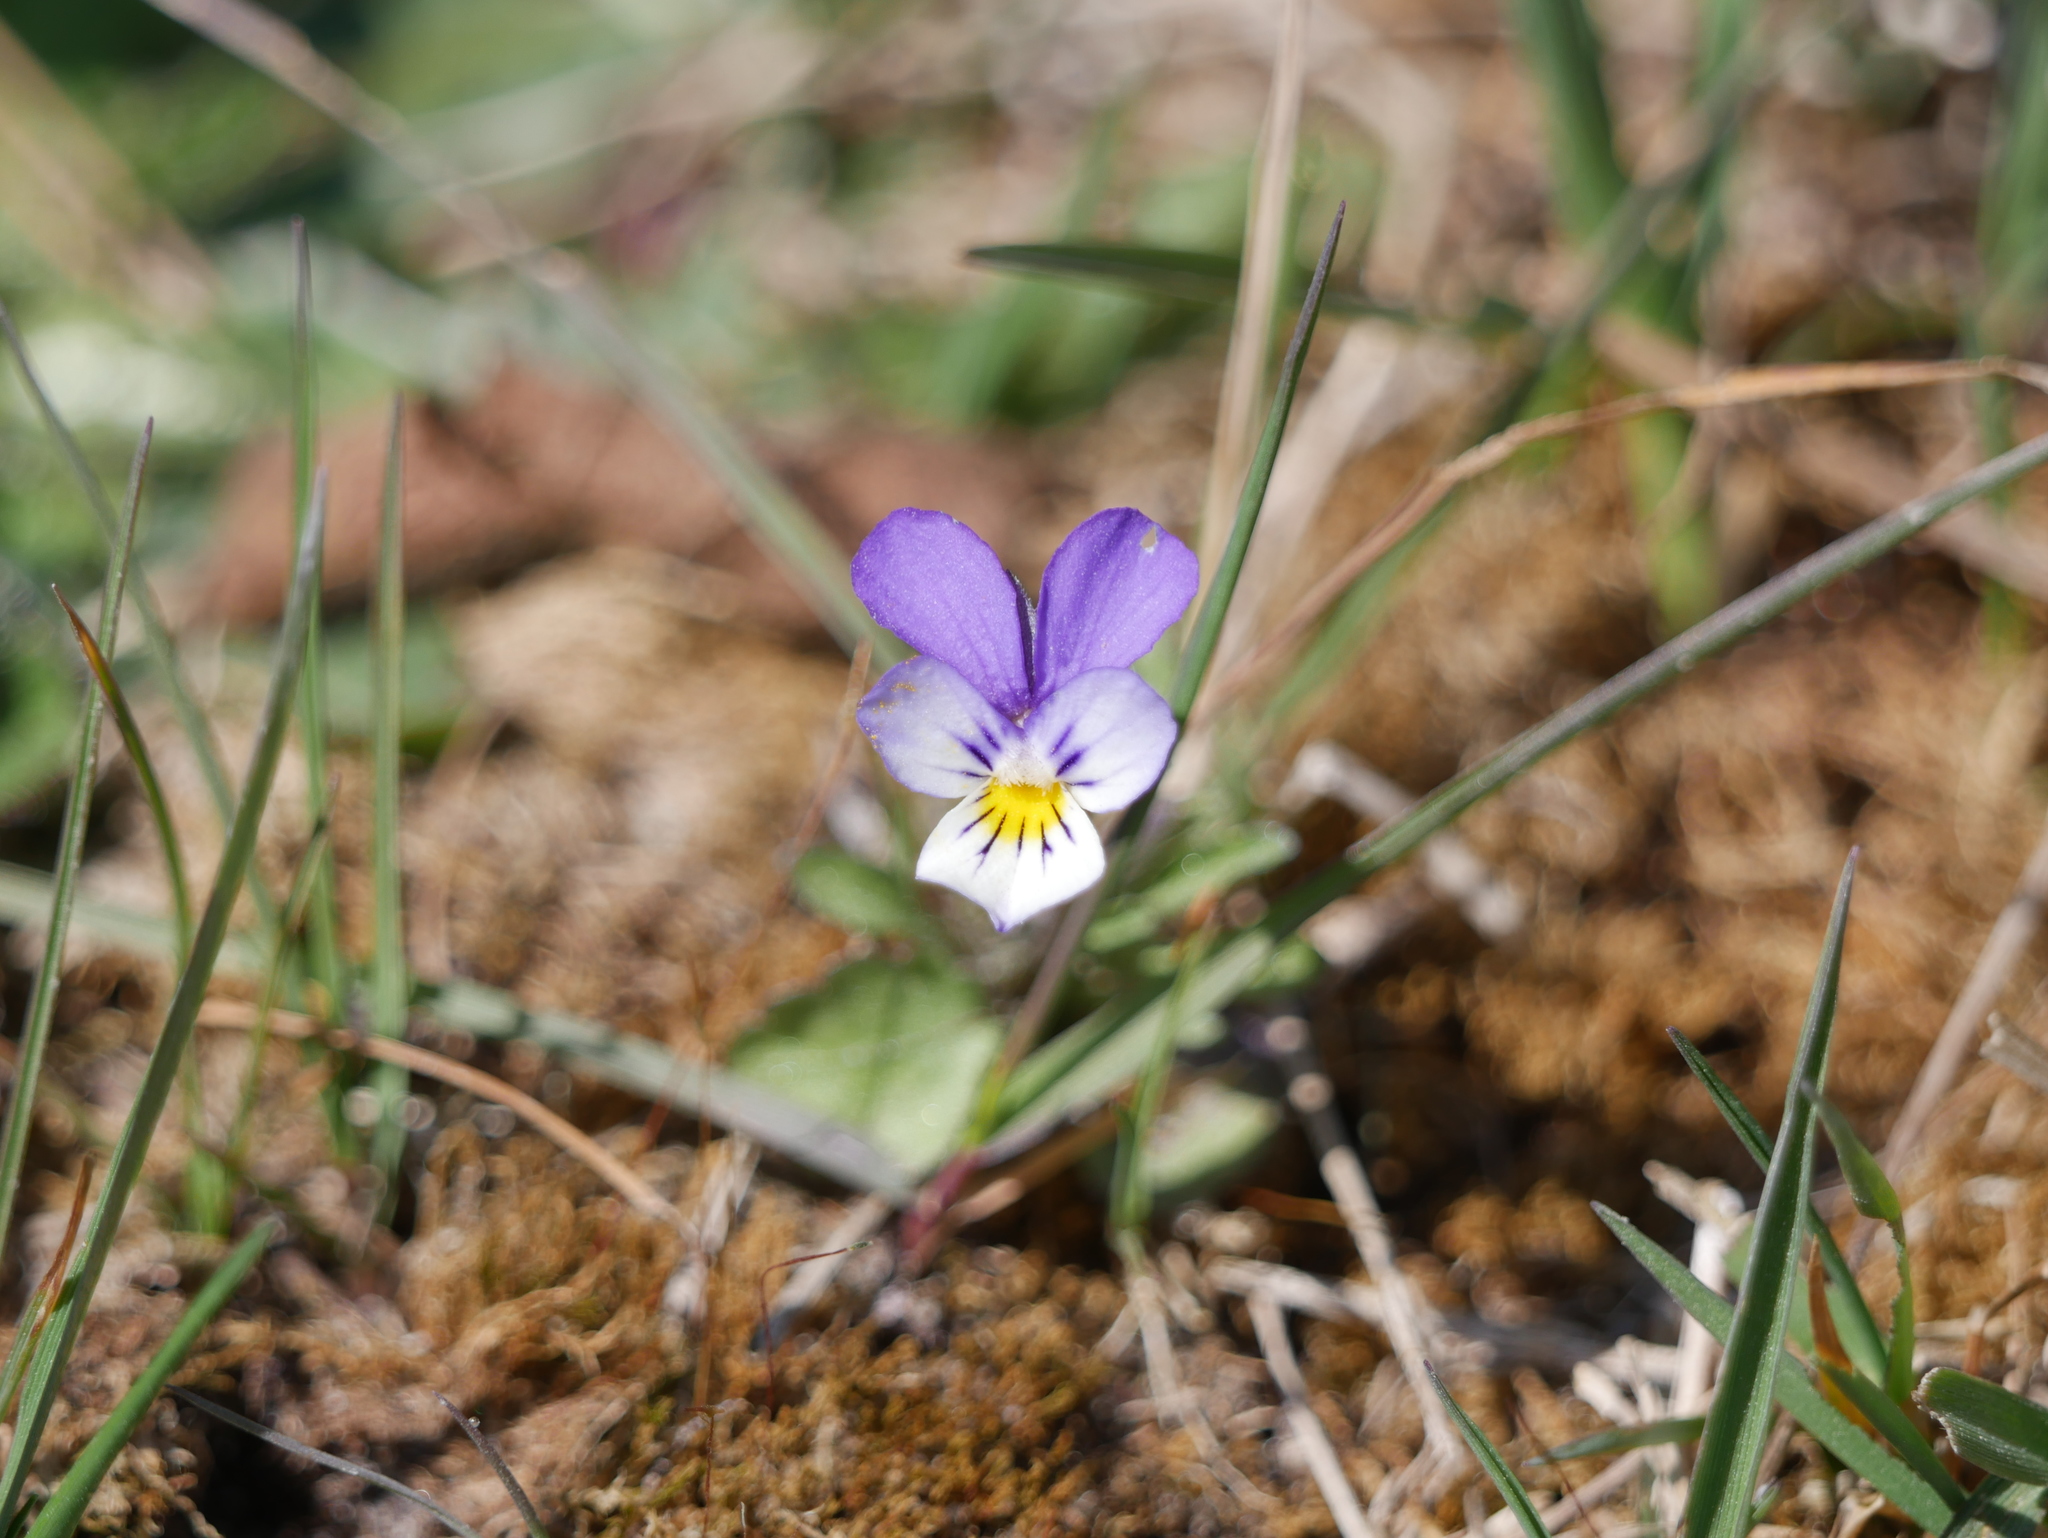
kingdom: Plantae
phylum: Tracheophyta
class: Magnoliopsida
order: Malpighiales
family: Violaceae
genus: Viola
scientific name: Viola tricolor
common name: Pansy
